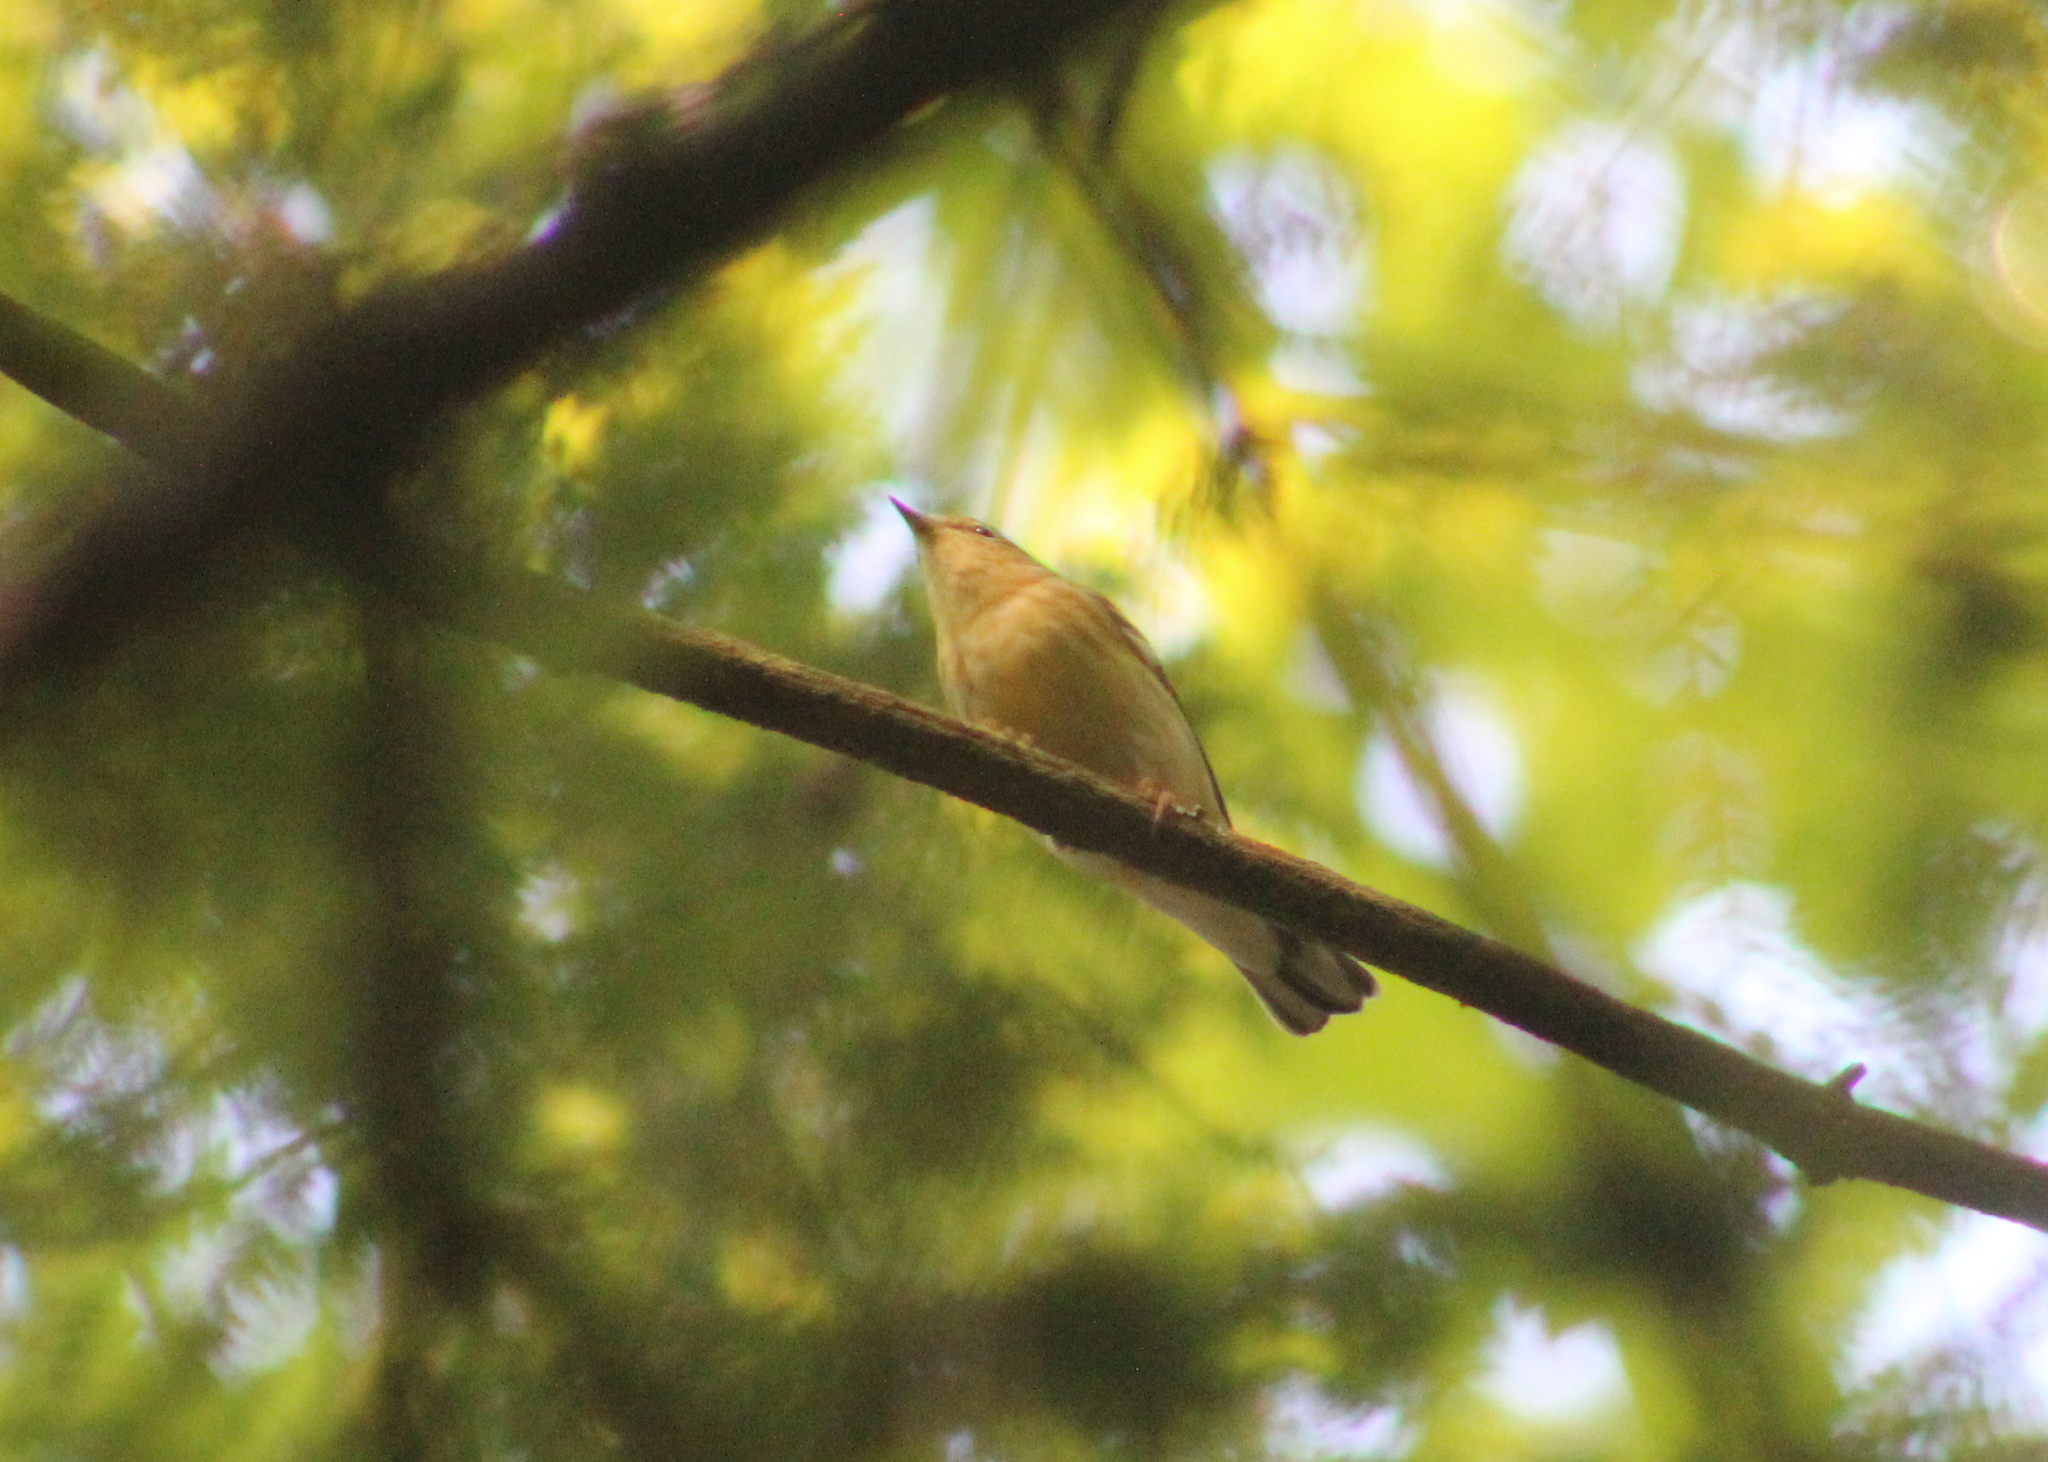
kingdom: Animalia
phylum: Chordata
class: Aves
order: Passeriformes
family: Parulidae
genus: Setophaga
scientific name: Setophaga striata
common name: Blackpoll warbler
